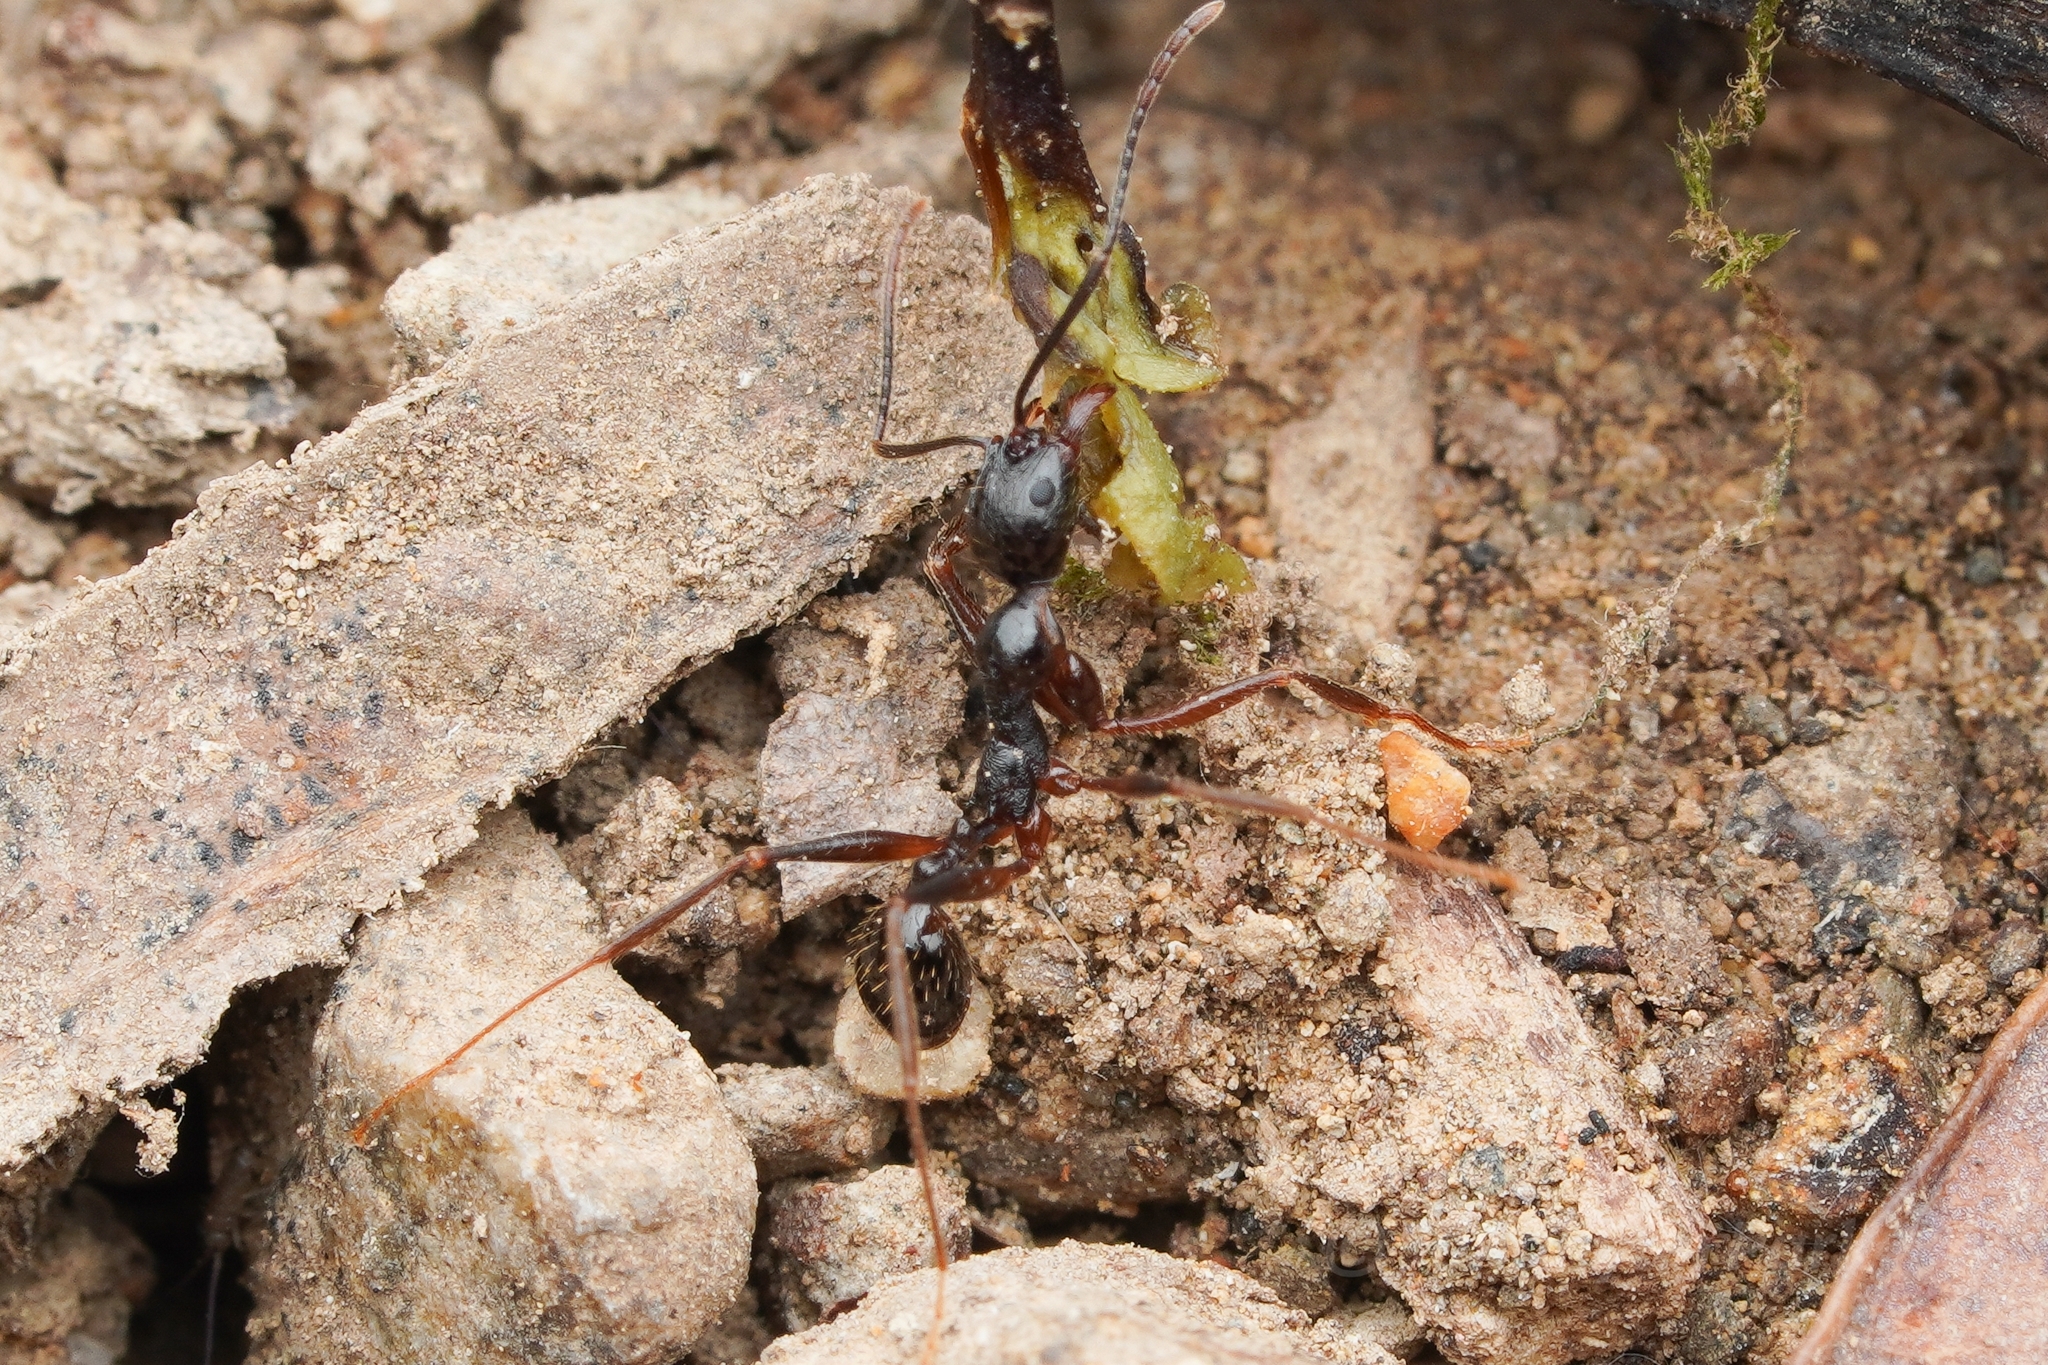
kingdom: Animalia
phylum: Arthropoda
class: Insecta
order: Hymenoptera
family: Formicidae
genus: Aphaenogaster
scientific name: Aphaenogaster famelica
